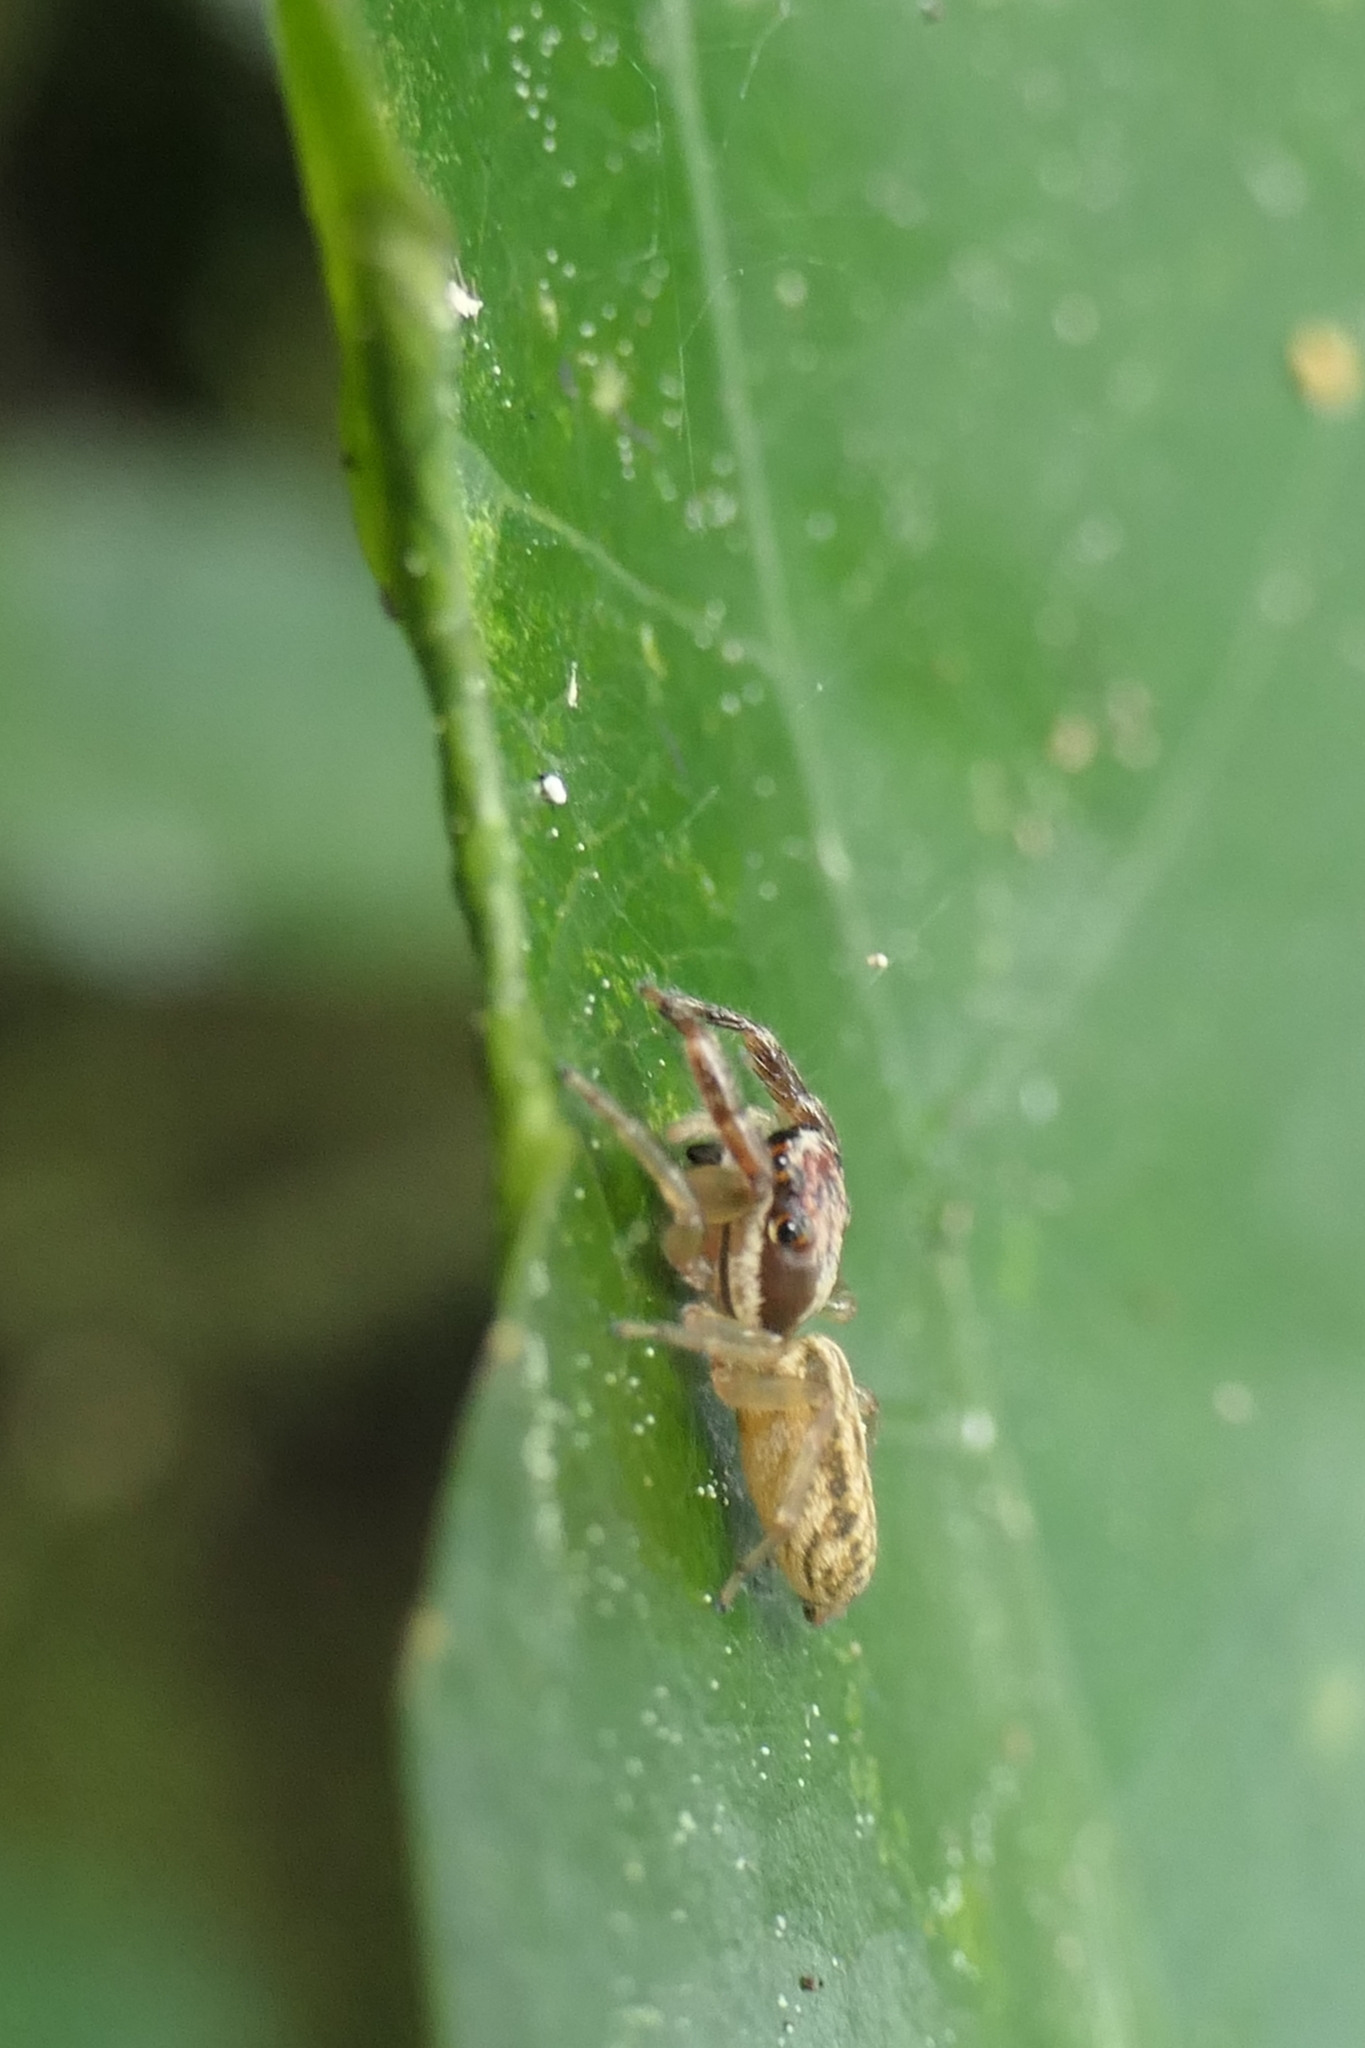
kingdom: Animalia
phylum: Arthropoda
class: Arachnida
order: Araneae
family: Salticidae
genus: Trite
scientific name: Trite mustilina
